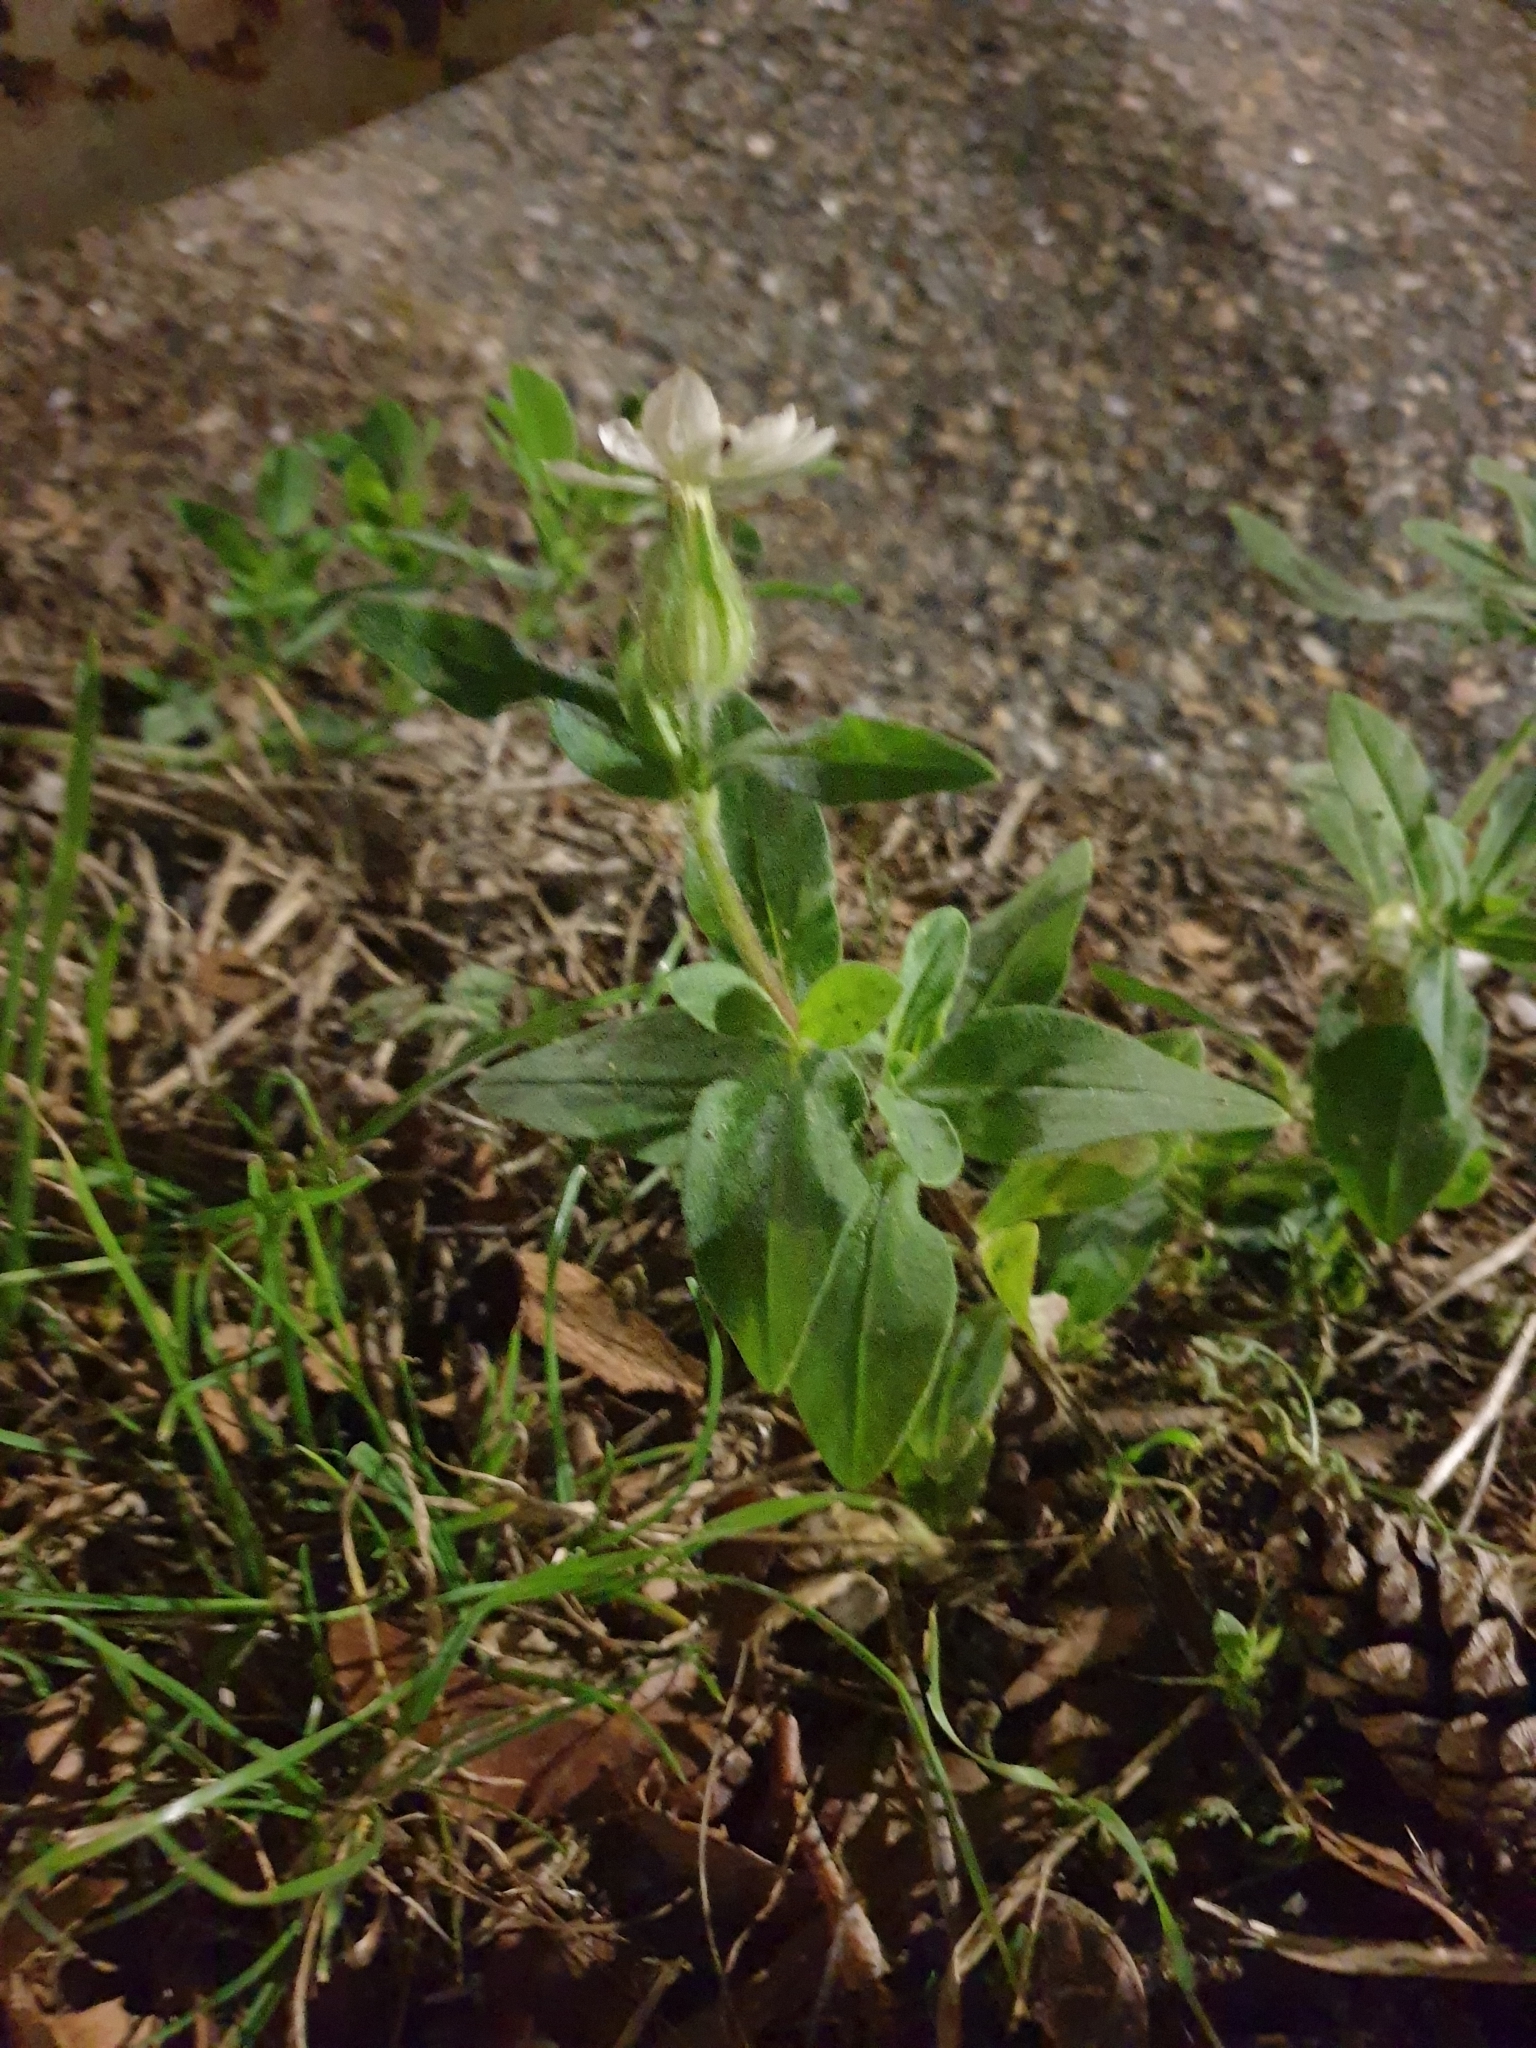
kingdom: Plantae
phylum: Tracheophyta
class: Magnoliopsida
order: Caryophyllales
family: Caryophyllaceae
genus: Silene
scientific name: Silene latifolia
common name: White campion
